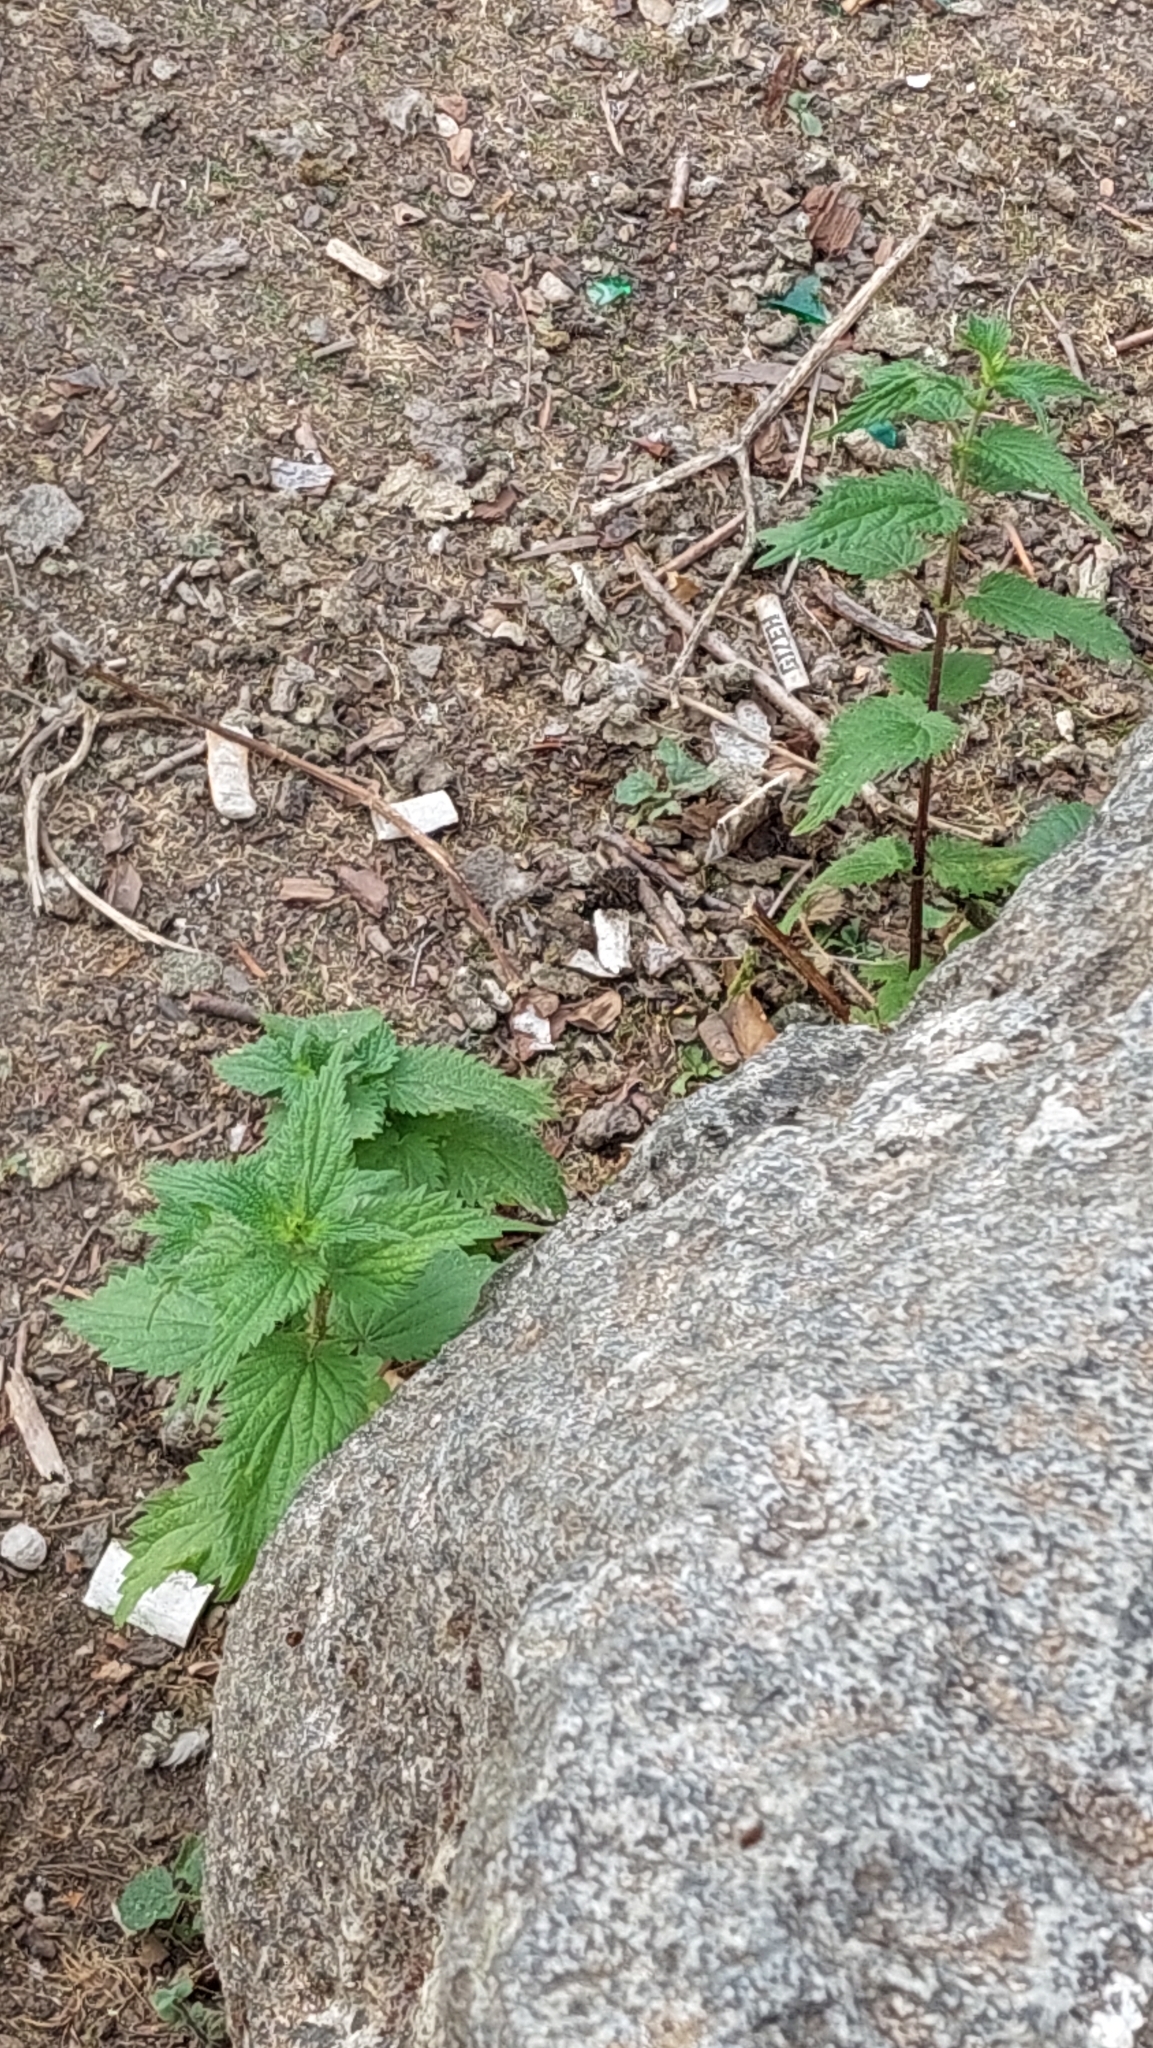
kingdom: Plantae
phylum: Tracheophyta
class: Magnoliopsida
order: Rosales
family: Urticaceae
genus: Urtica
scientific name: Urtica dioica
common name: Common nettle
